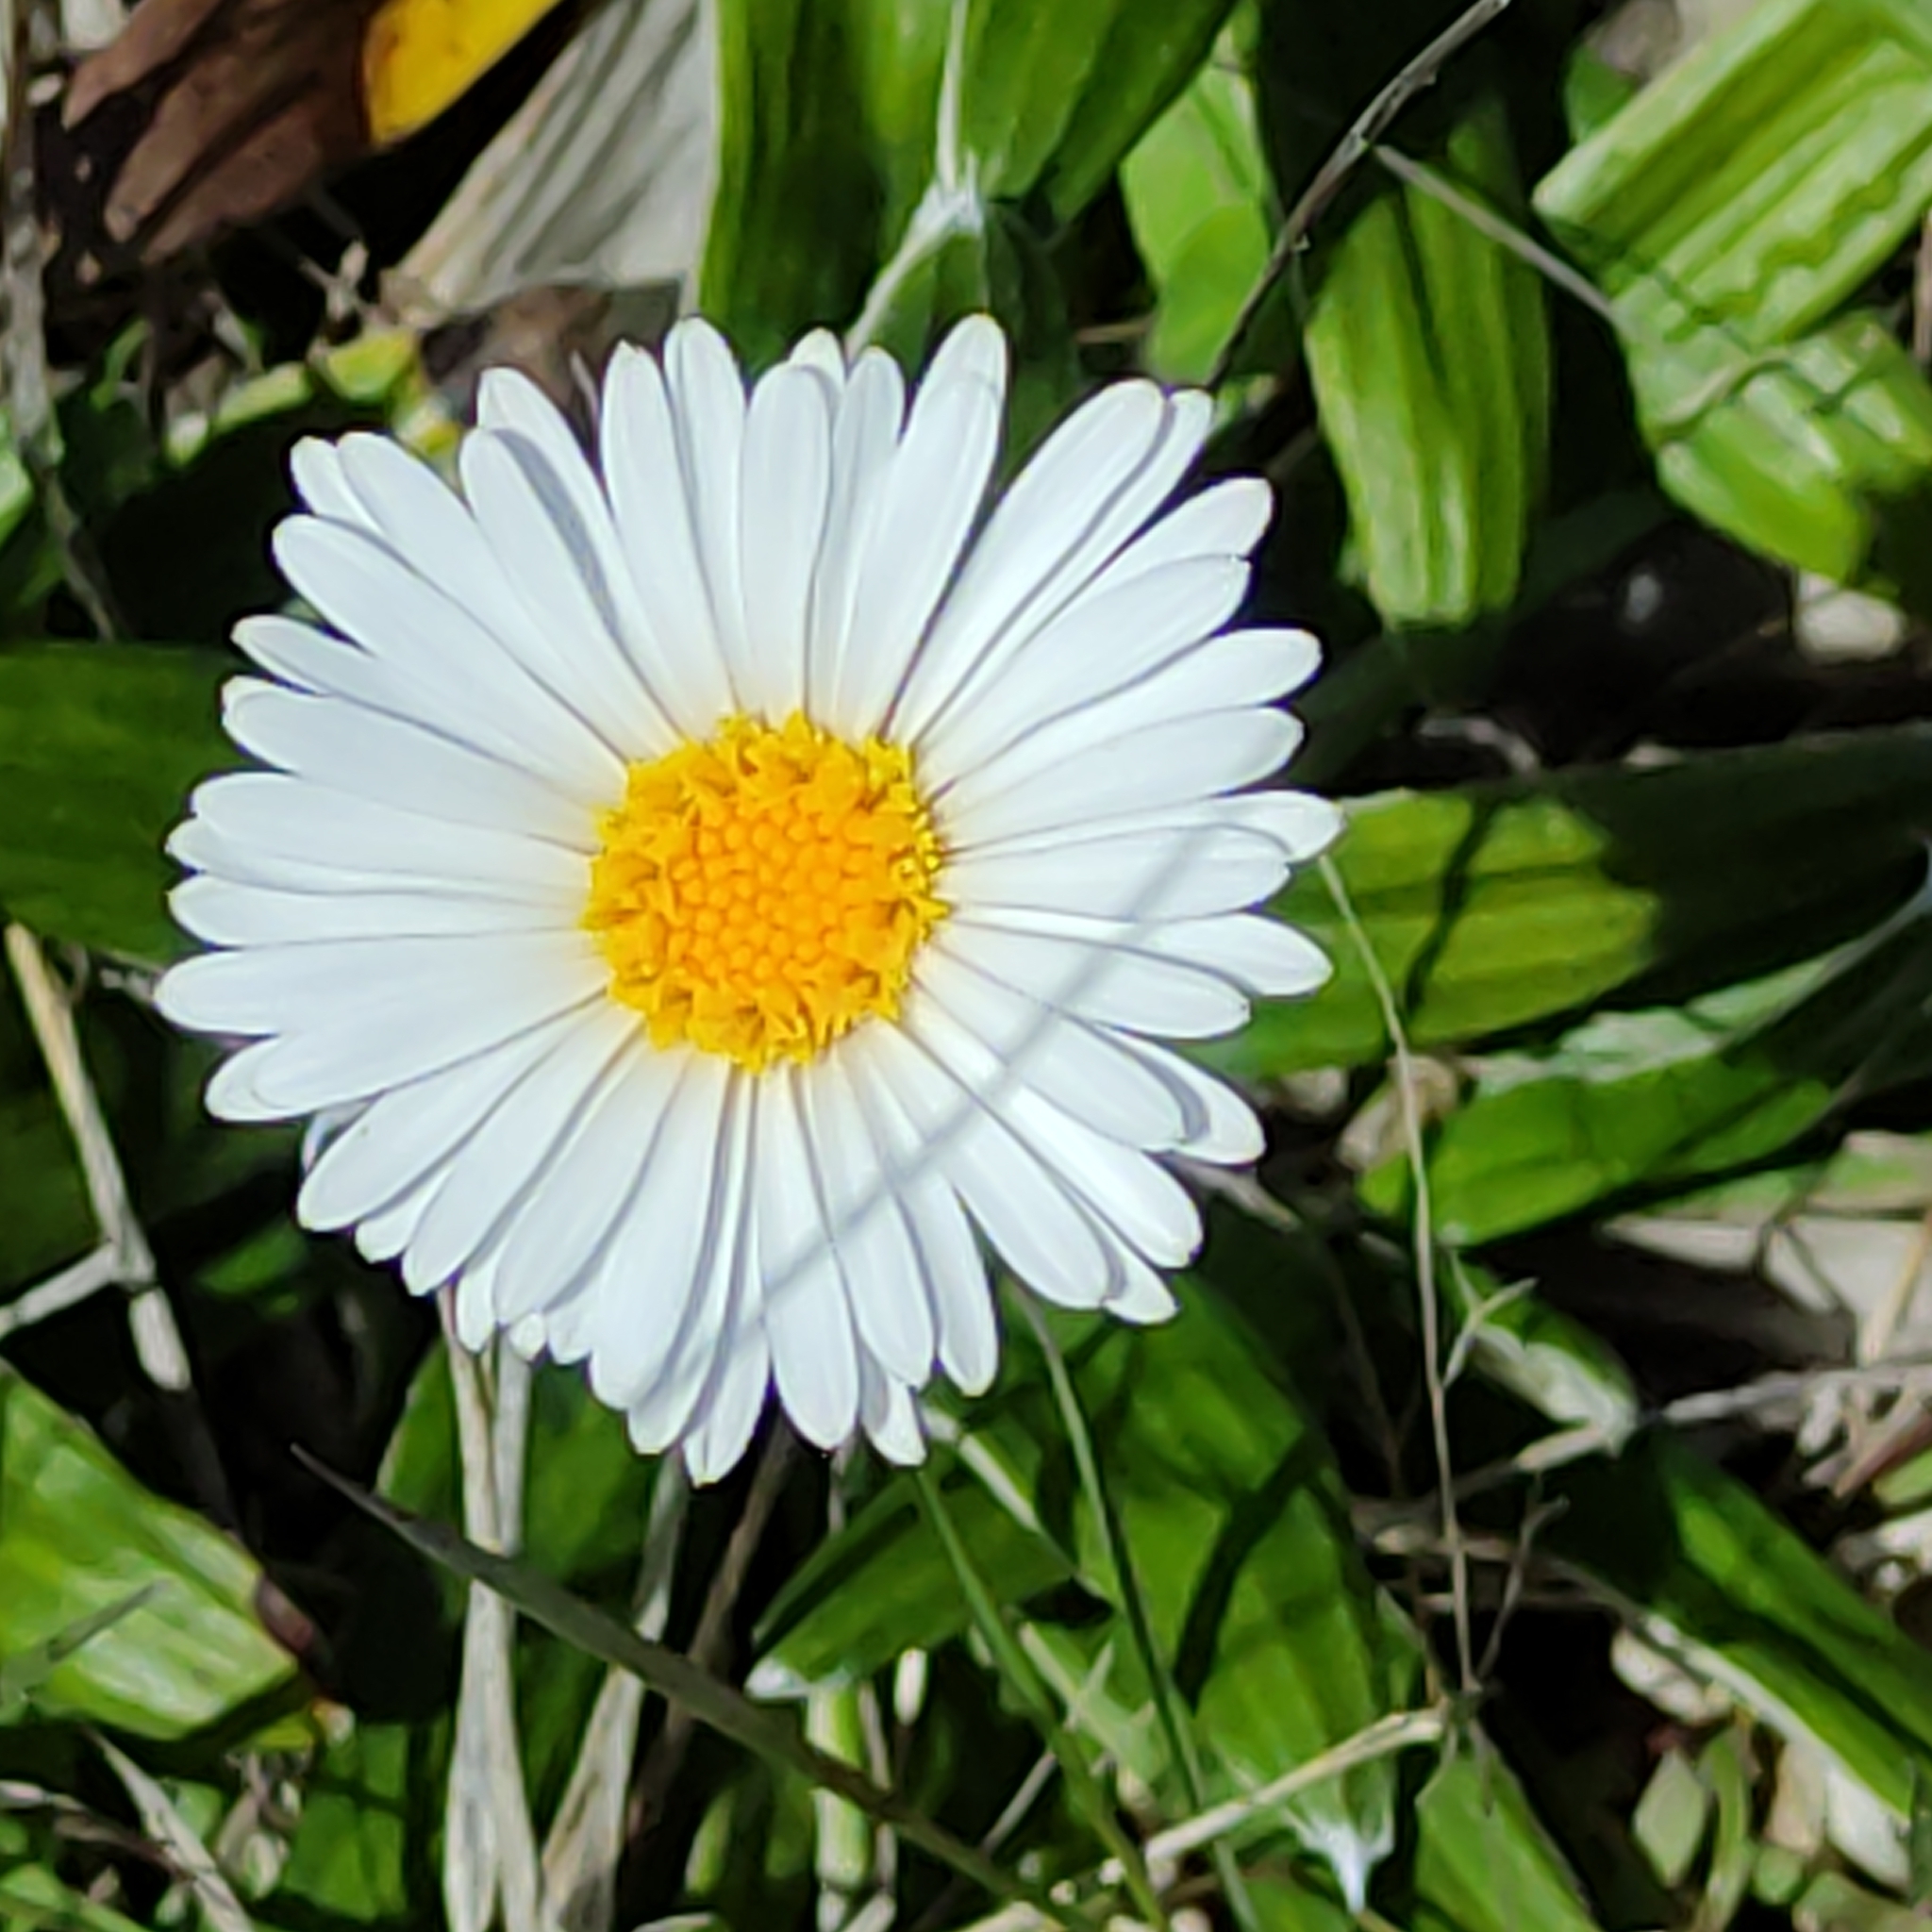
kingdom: Plantae
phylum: Tracheophyta
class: Magnoliopsida
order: Asterales
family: Asteraceae
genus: Celmisia
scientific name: Celmisia spectabilis
